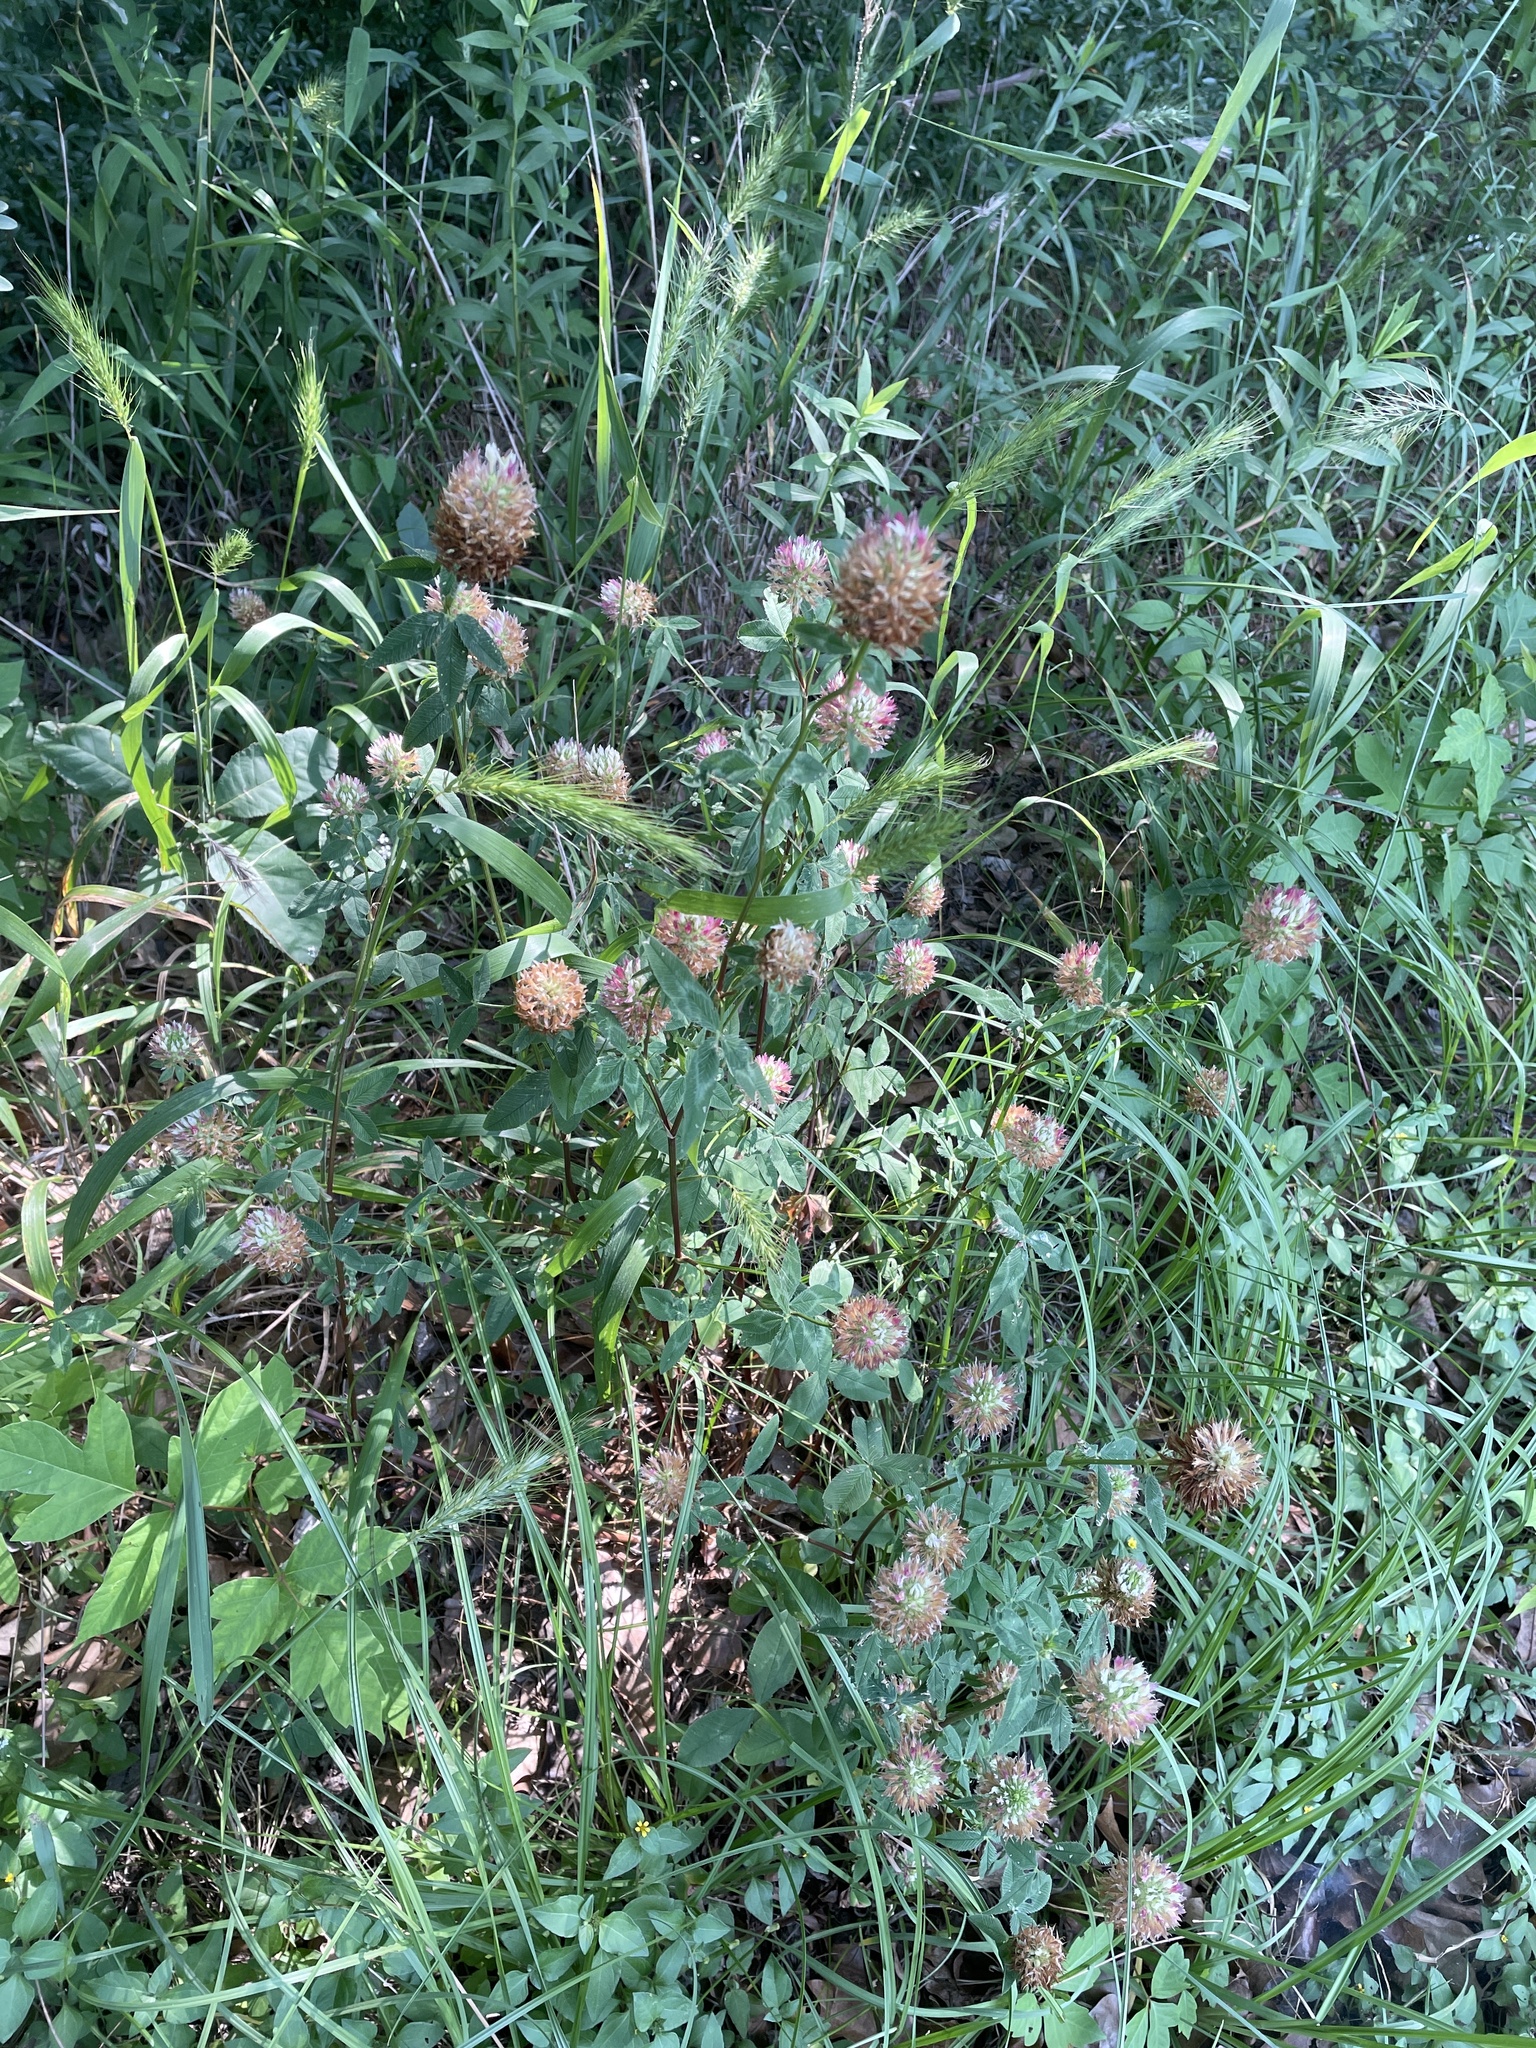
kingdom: Plantae
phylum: Tracheophyta
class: Magnoliopsida
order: Fabales
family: Fabaceae
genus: Trifolium
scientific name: Trifolium vesiculosum
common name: Arrowleaf clover
